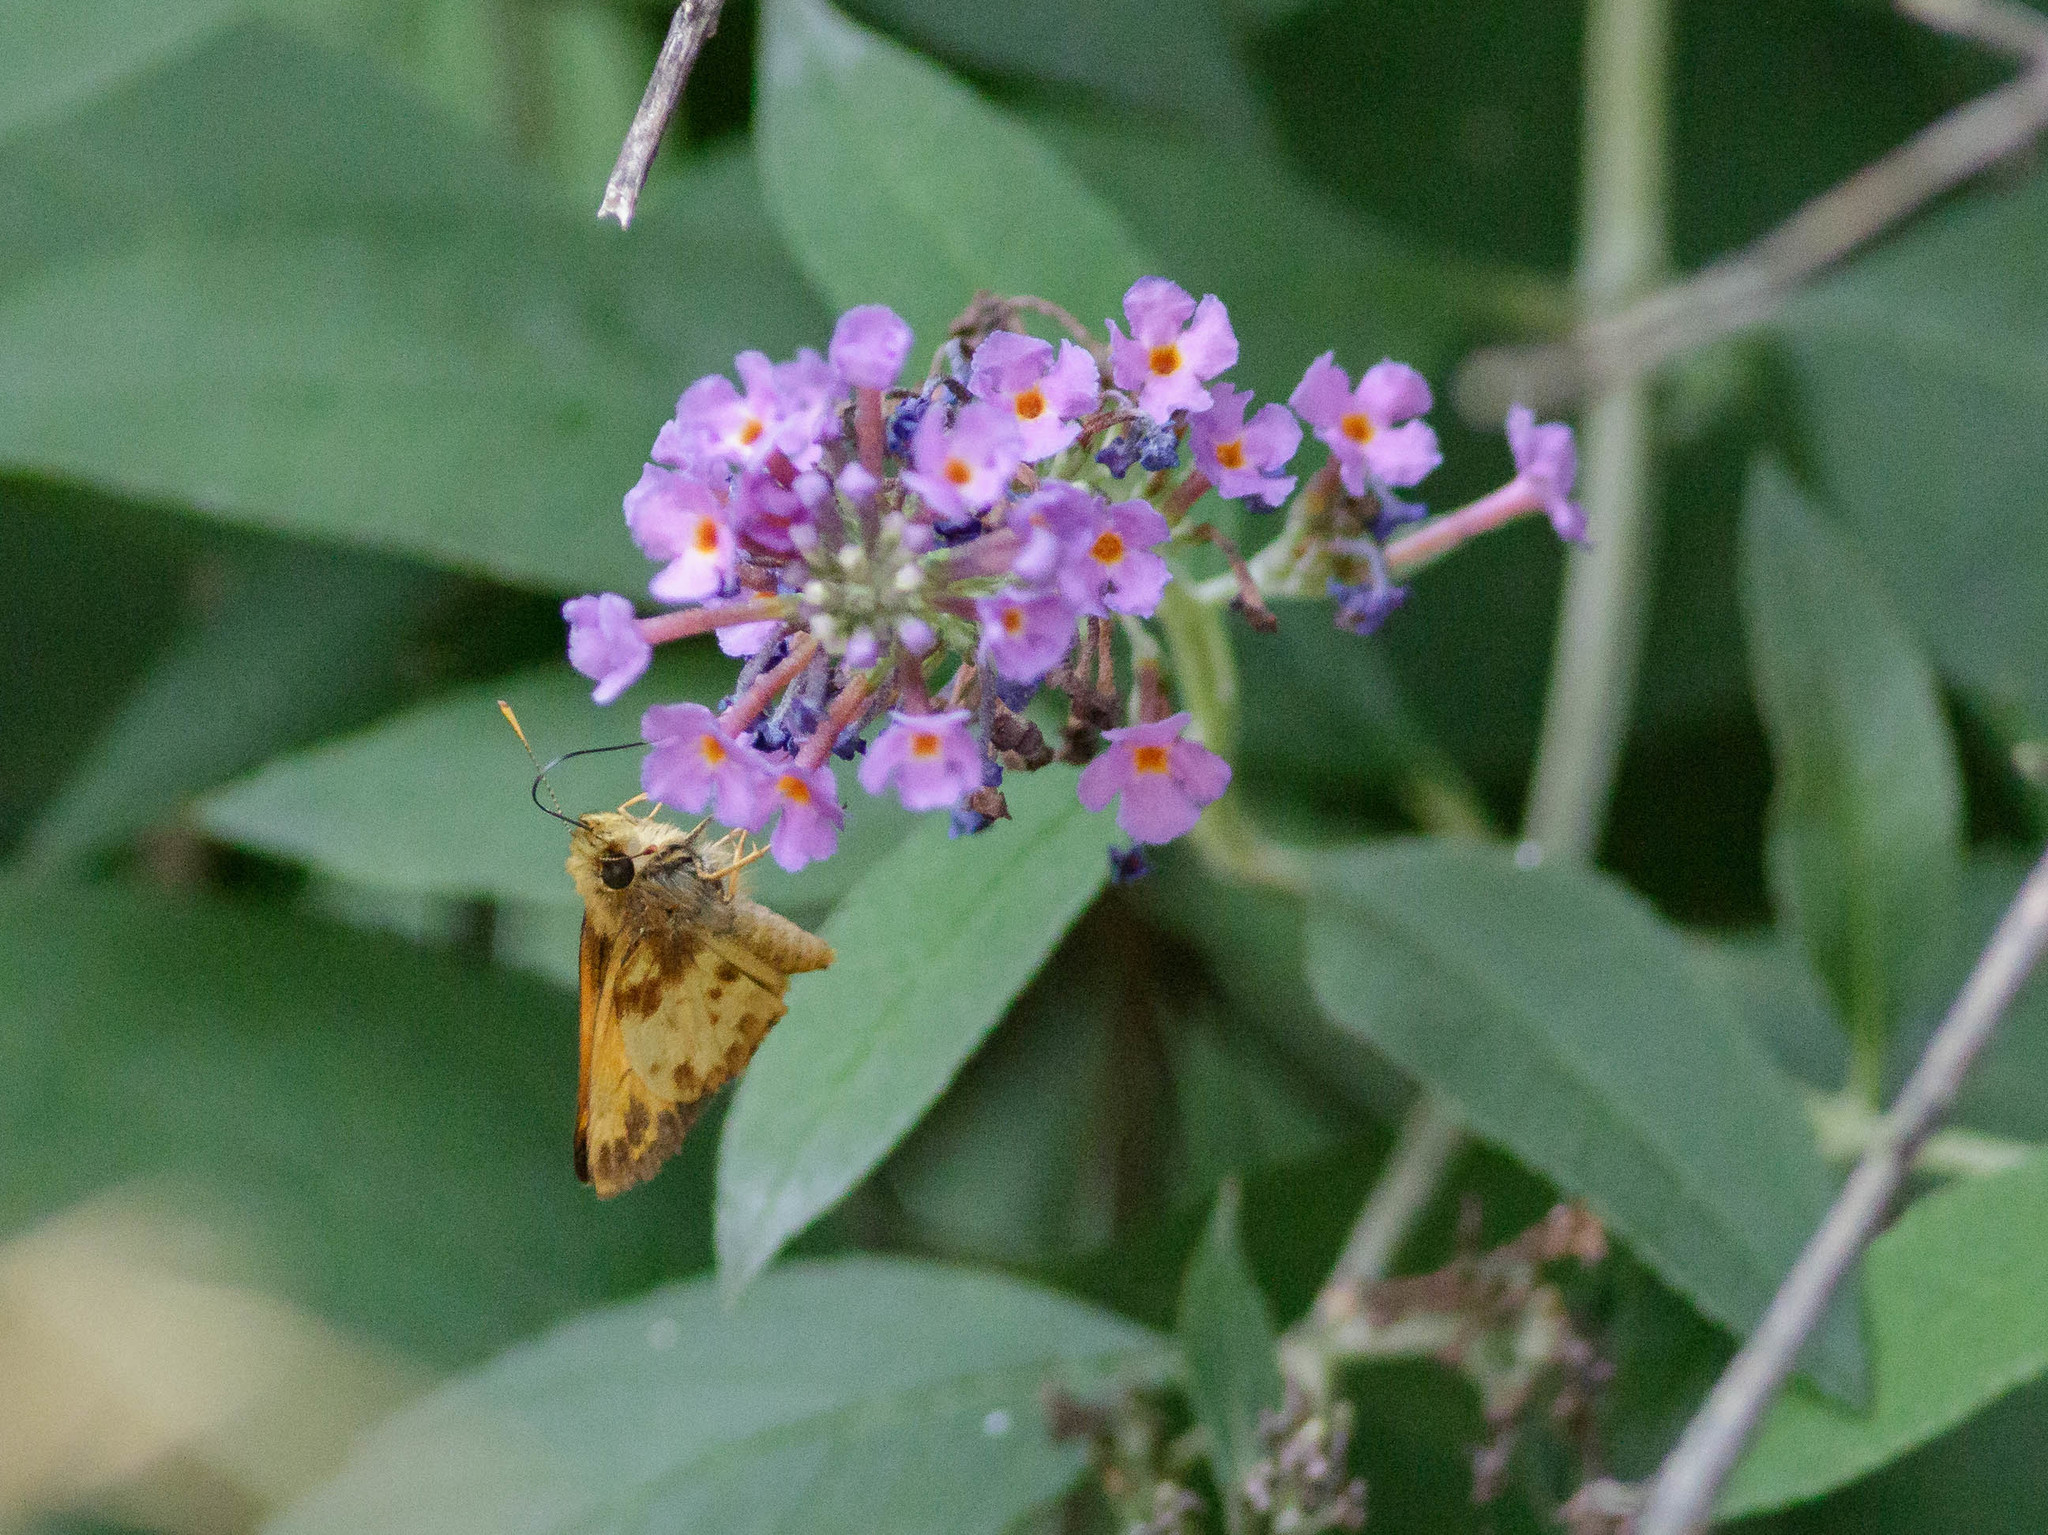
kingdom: Animalia
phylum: Arthropoda
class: Insecta
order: Lepidoptera
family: Hesperiidae
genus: Lon
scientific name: Lon zabulon
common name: Zabulon skipper
